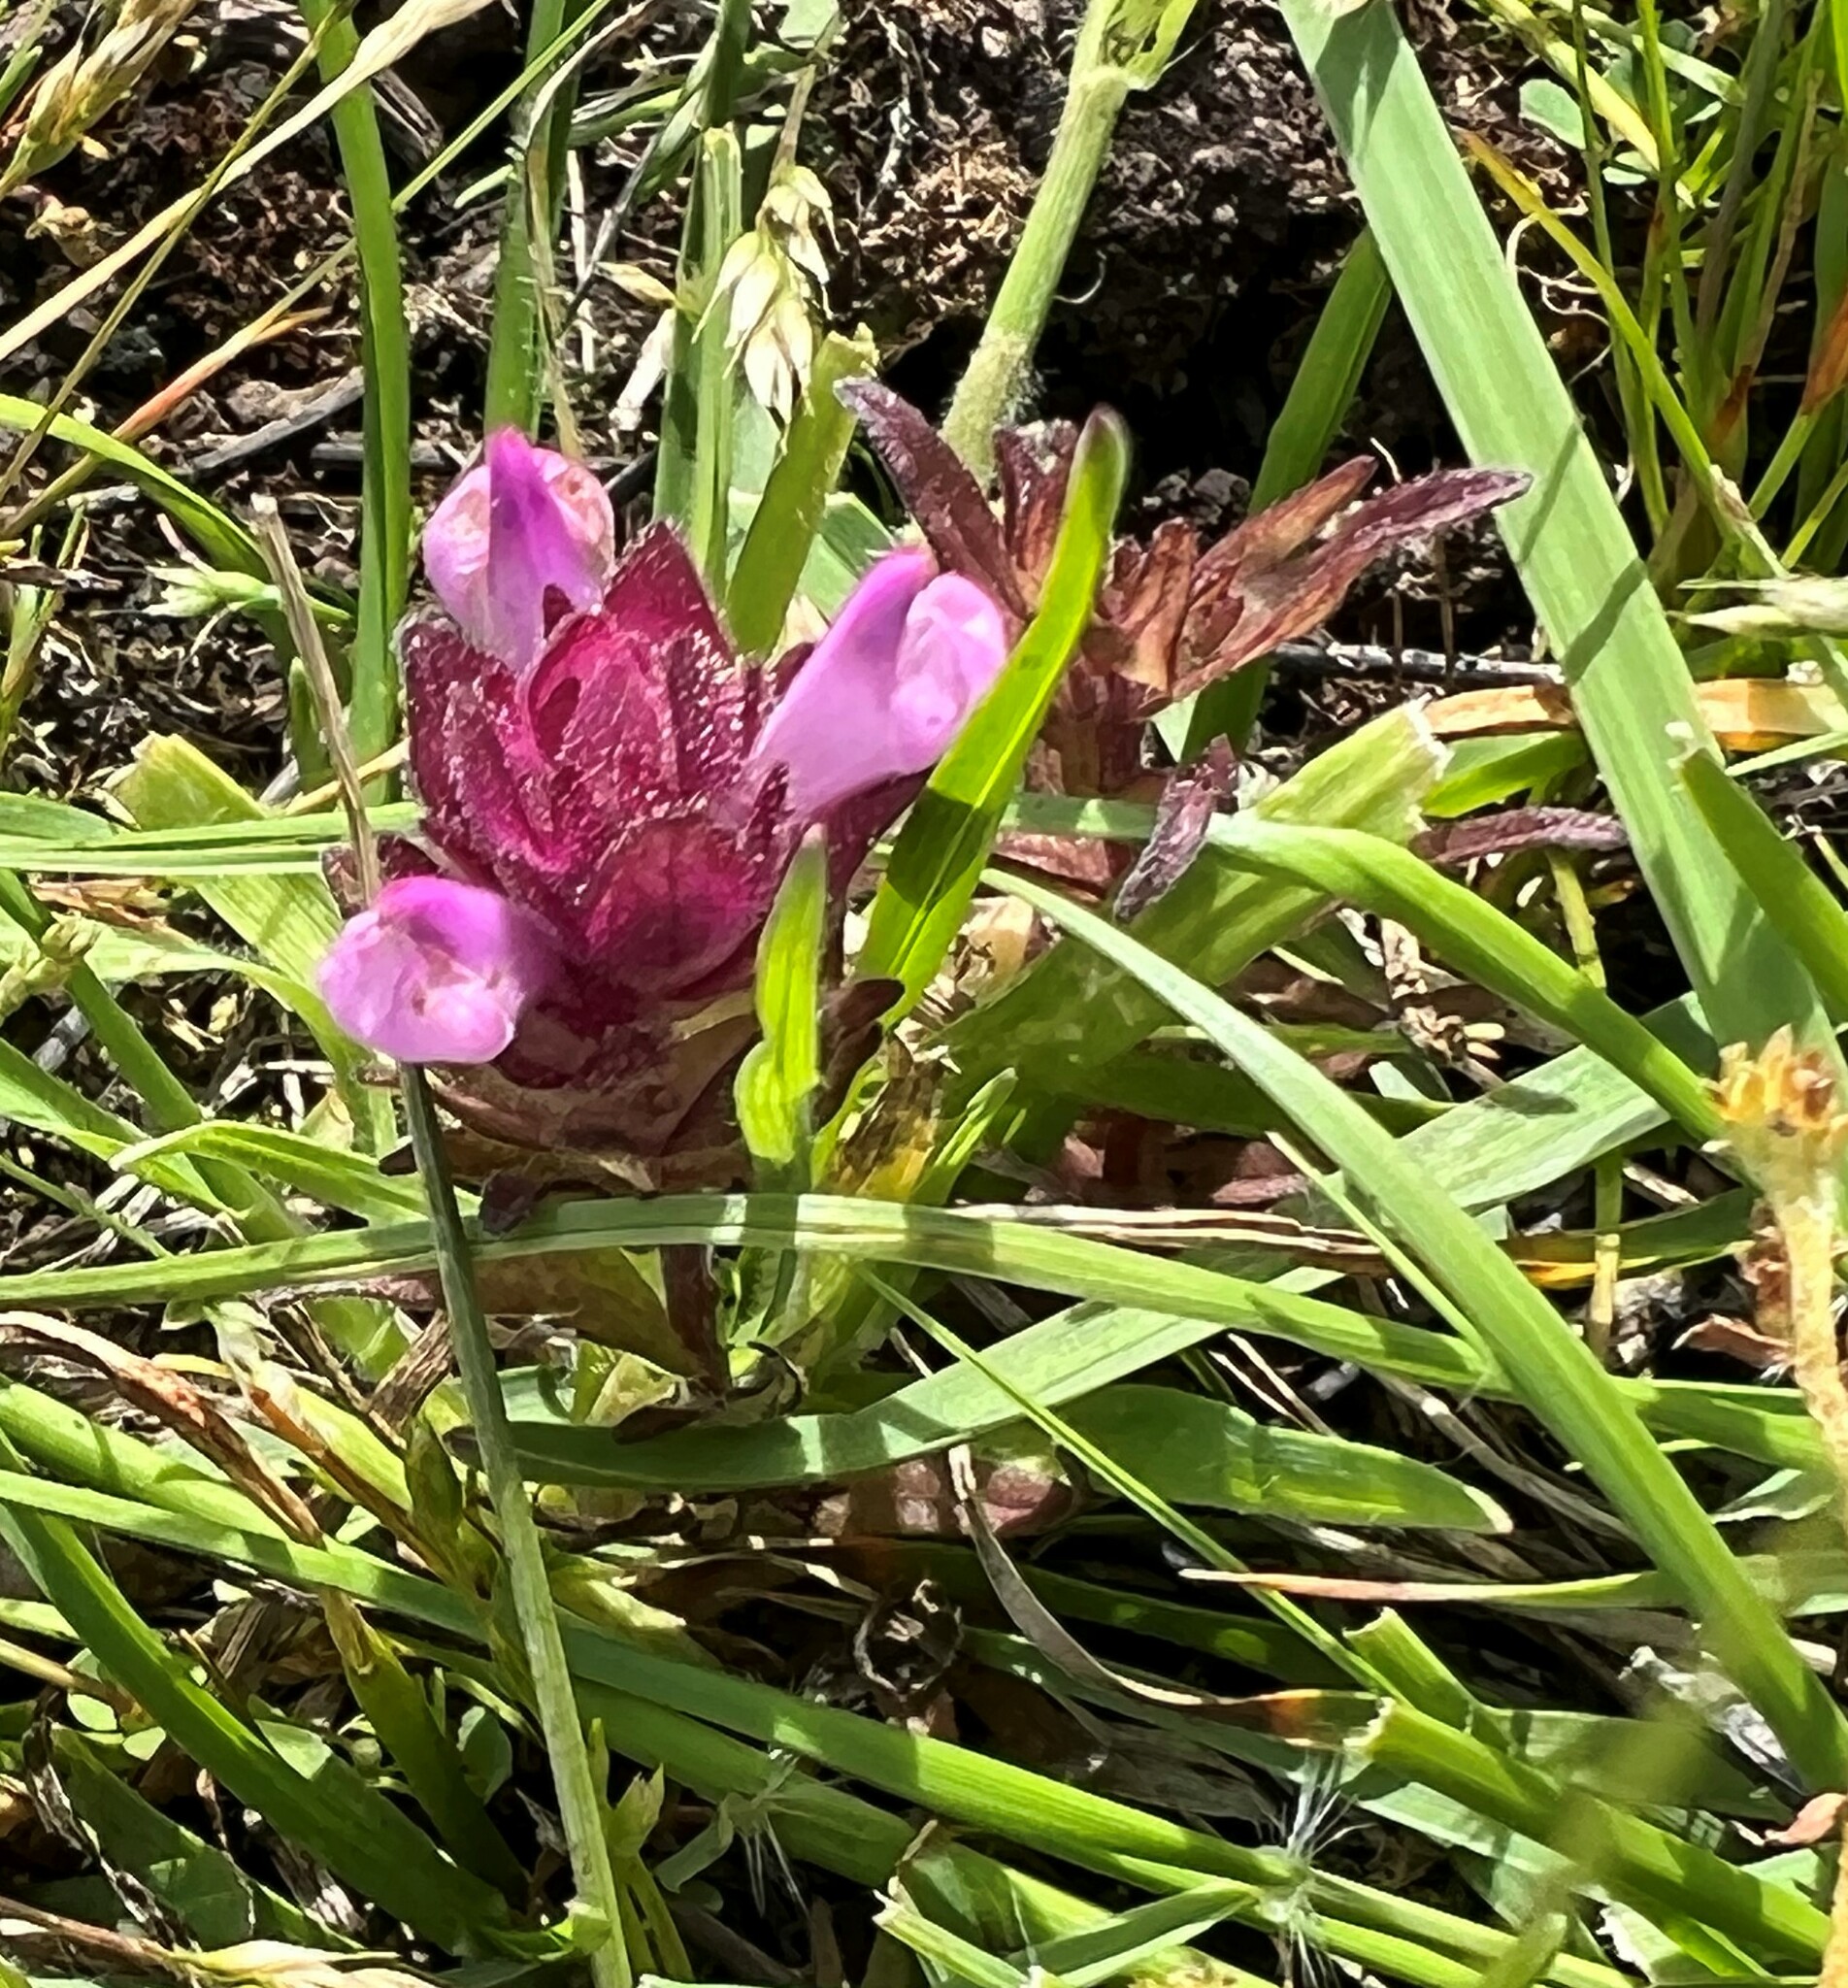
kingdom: Plantae
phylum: Tracheophyta
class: Magnoliopsida
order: Lamiales
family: Orobanchaceae
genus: Orthocarpus
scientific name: Orthocarpus bracteosus
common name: Rosy owl's-clover
